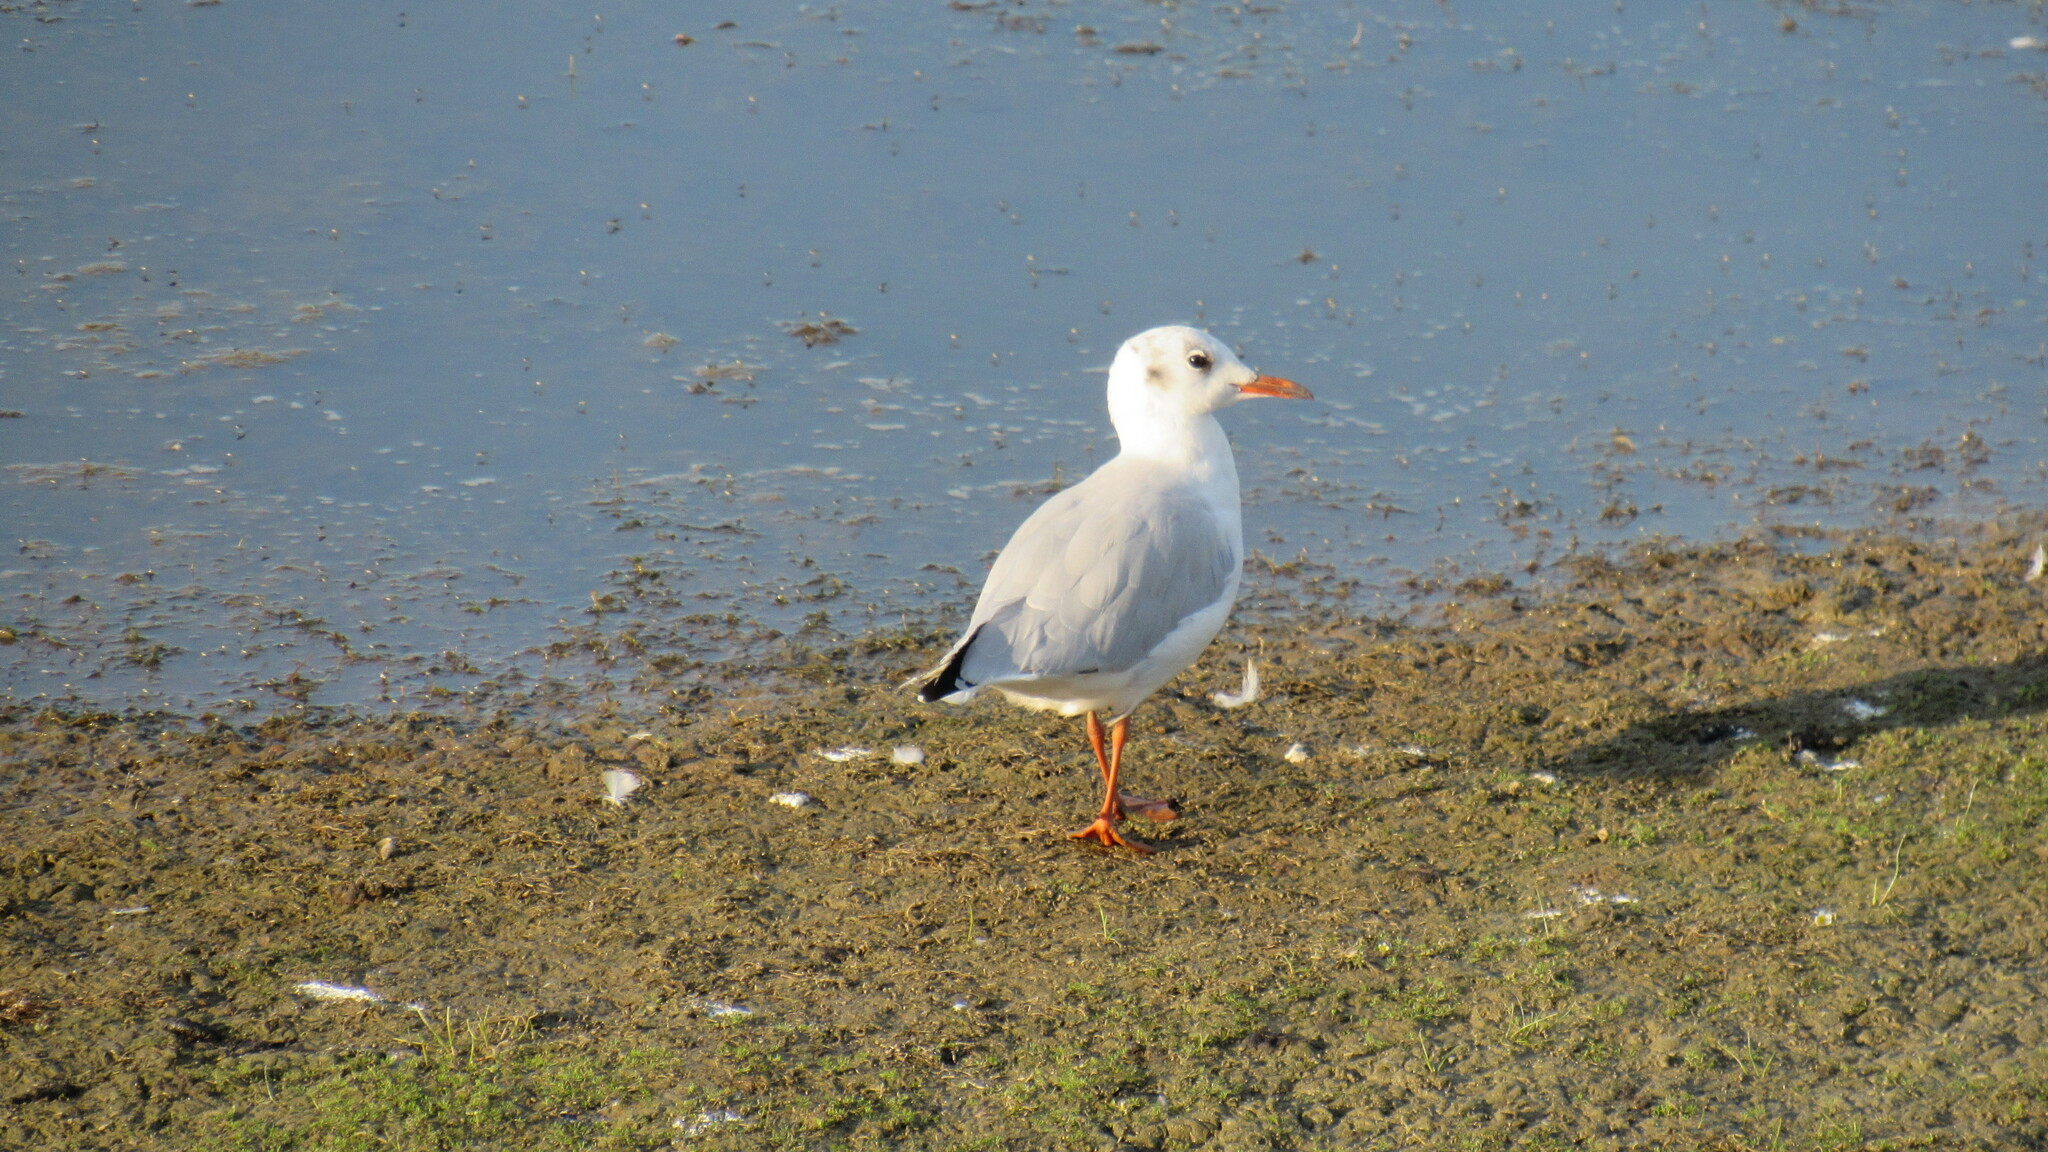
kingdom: Animalia
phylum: Chordata
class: Aves
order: Charadriiformes
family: Laridae
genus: Chroicocephalus
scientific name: Chroicocephalus ridibundus
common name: Black-headed gull
